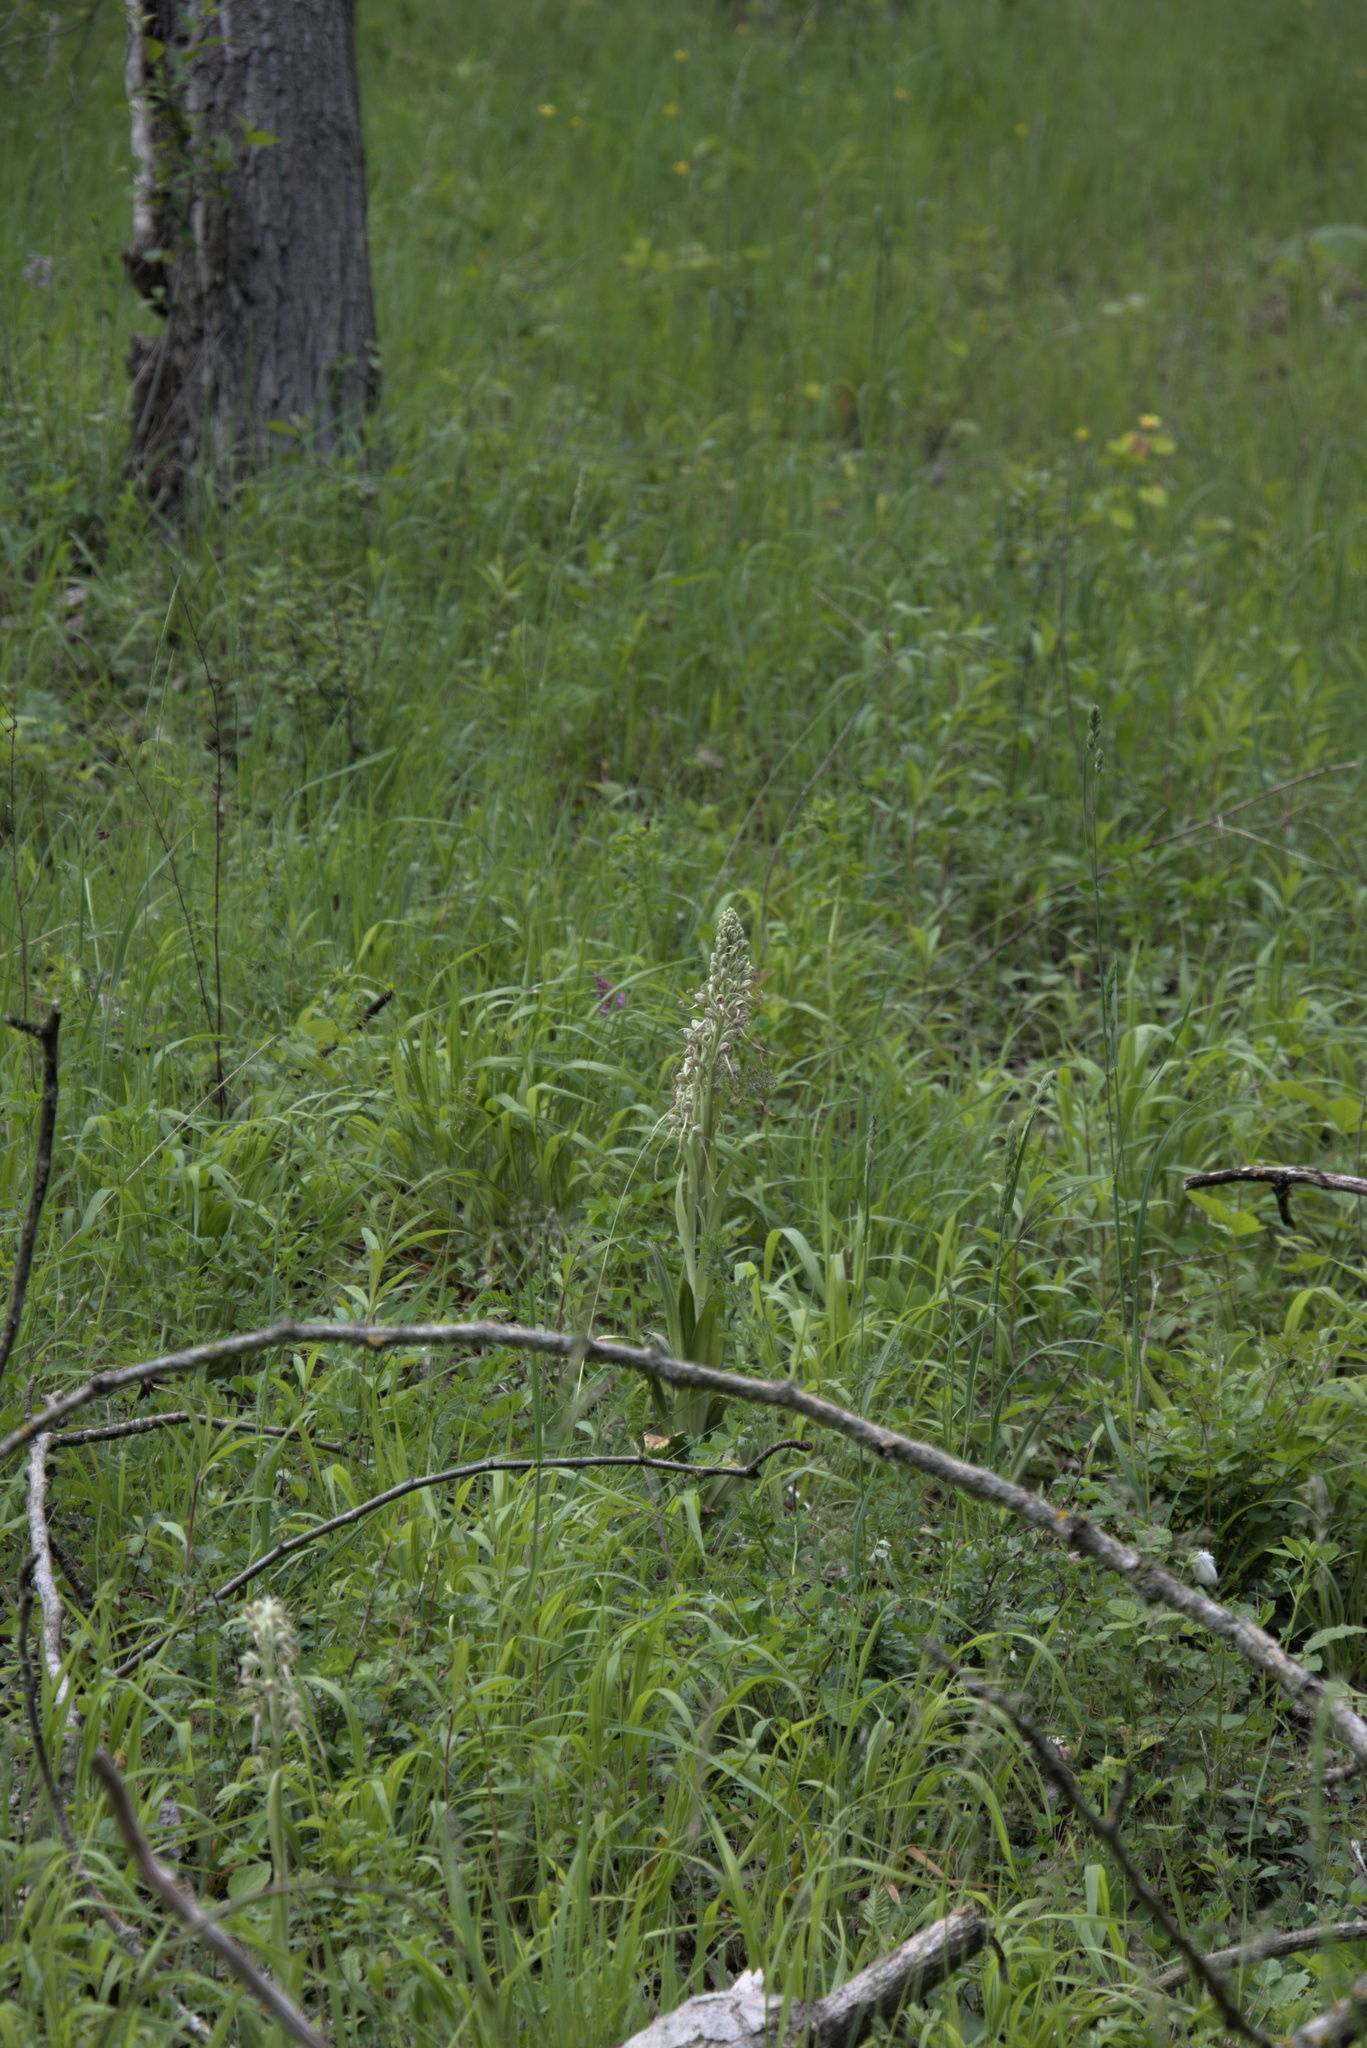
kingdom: Plantae
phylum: Tracheophyta
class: Liliopsida
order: Asparagales
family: Orchidaceae
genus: Himantoglossum
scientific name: Himantoglossum hircinum
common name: Lizard orchid
